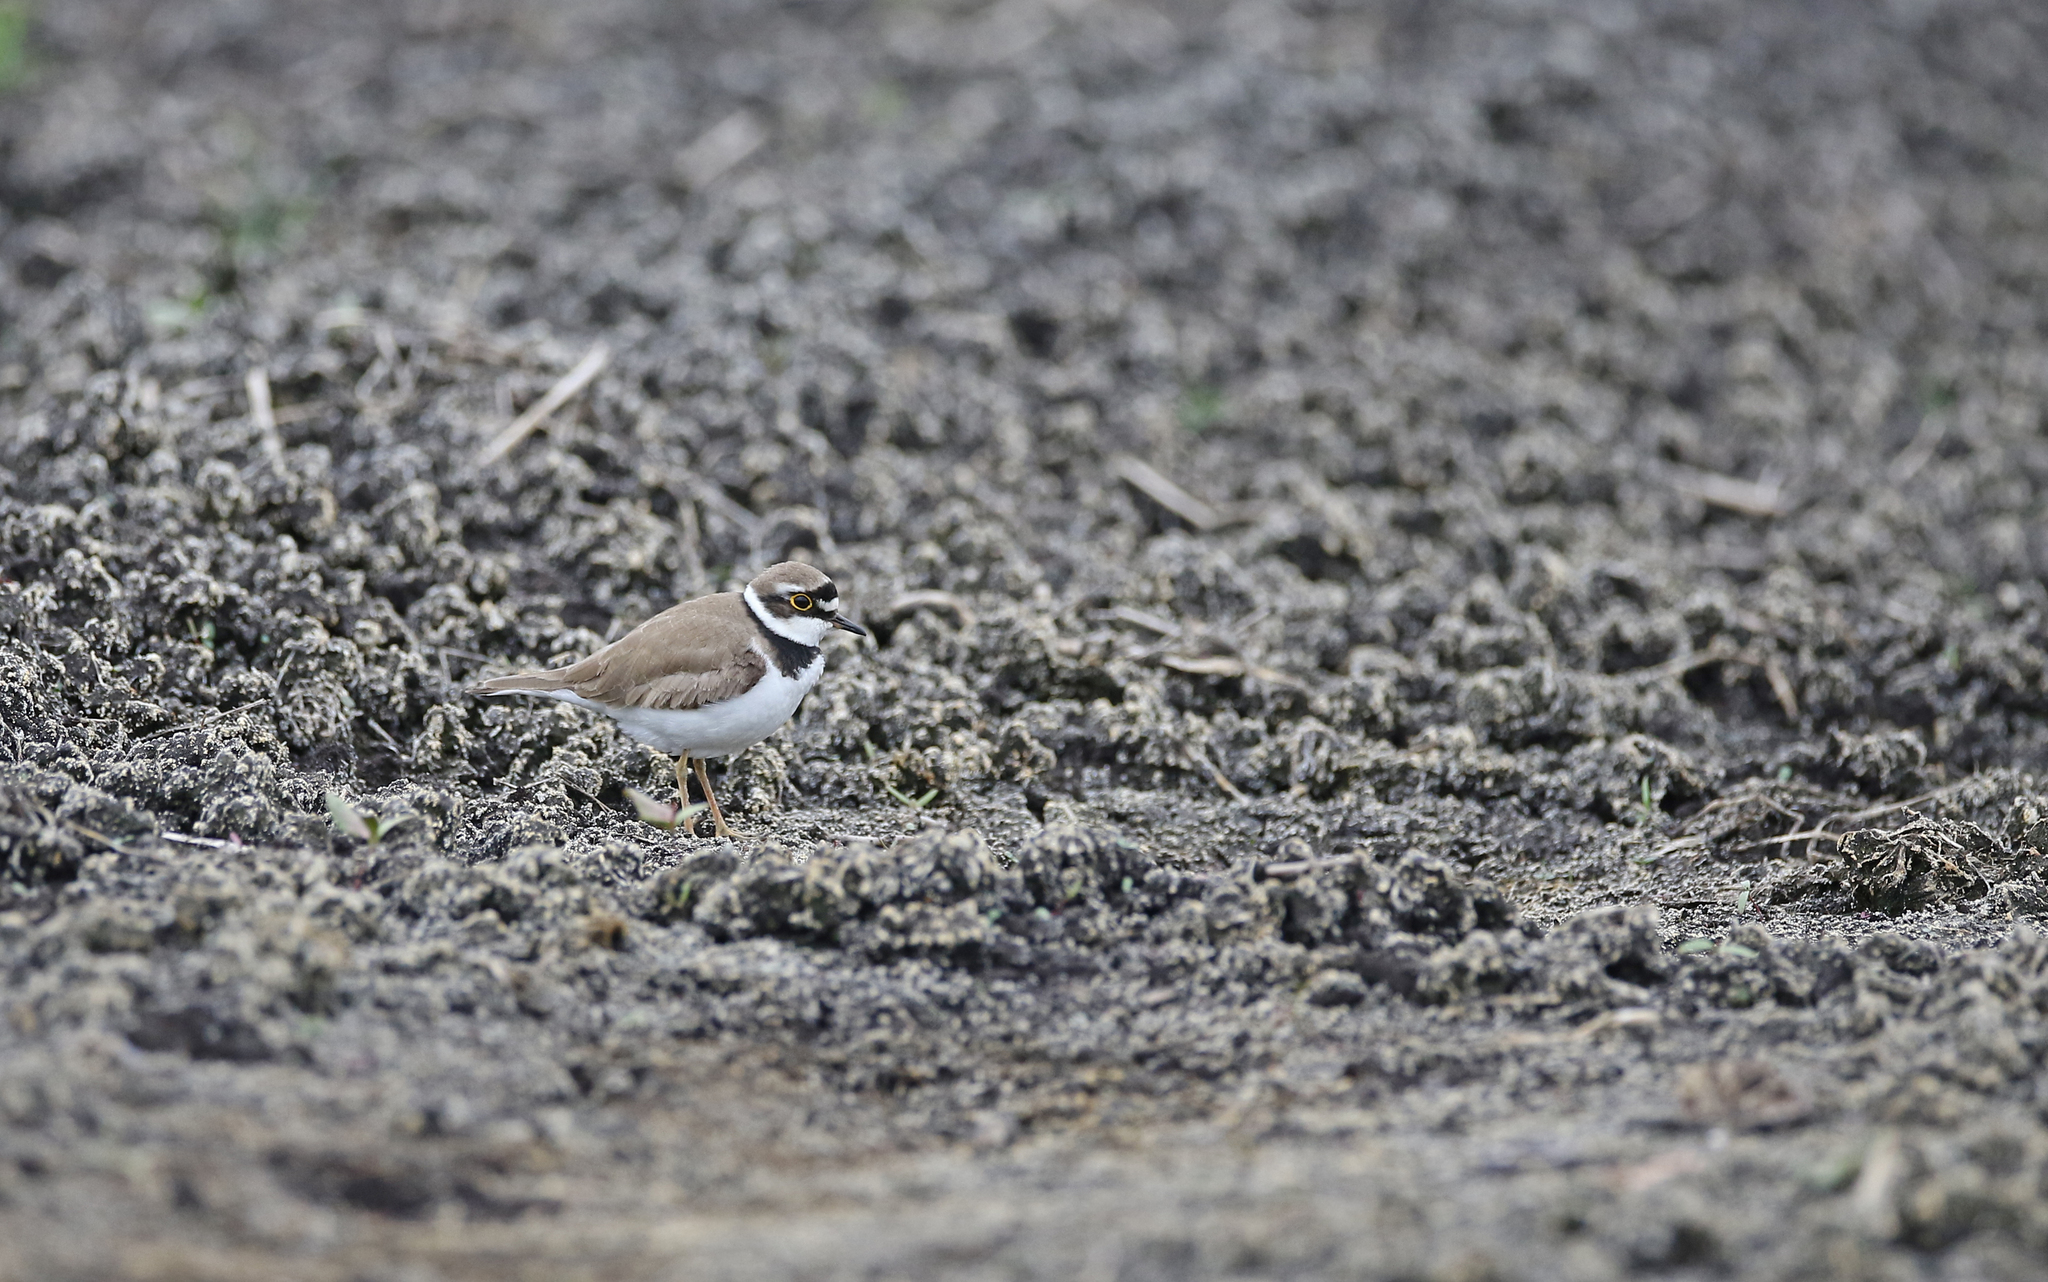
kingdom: Animalia
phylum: Chordata
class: Aves
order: Charadriiformes
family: Charadriidae
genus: Charadrius
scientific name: Charadrius dubius
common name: Little ringed plover
